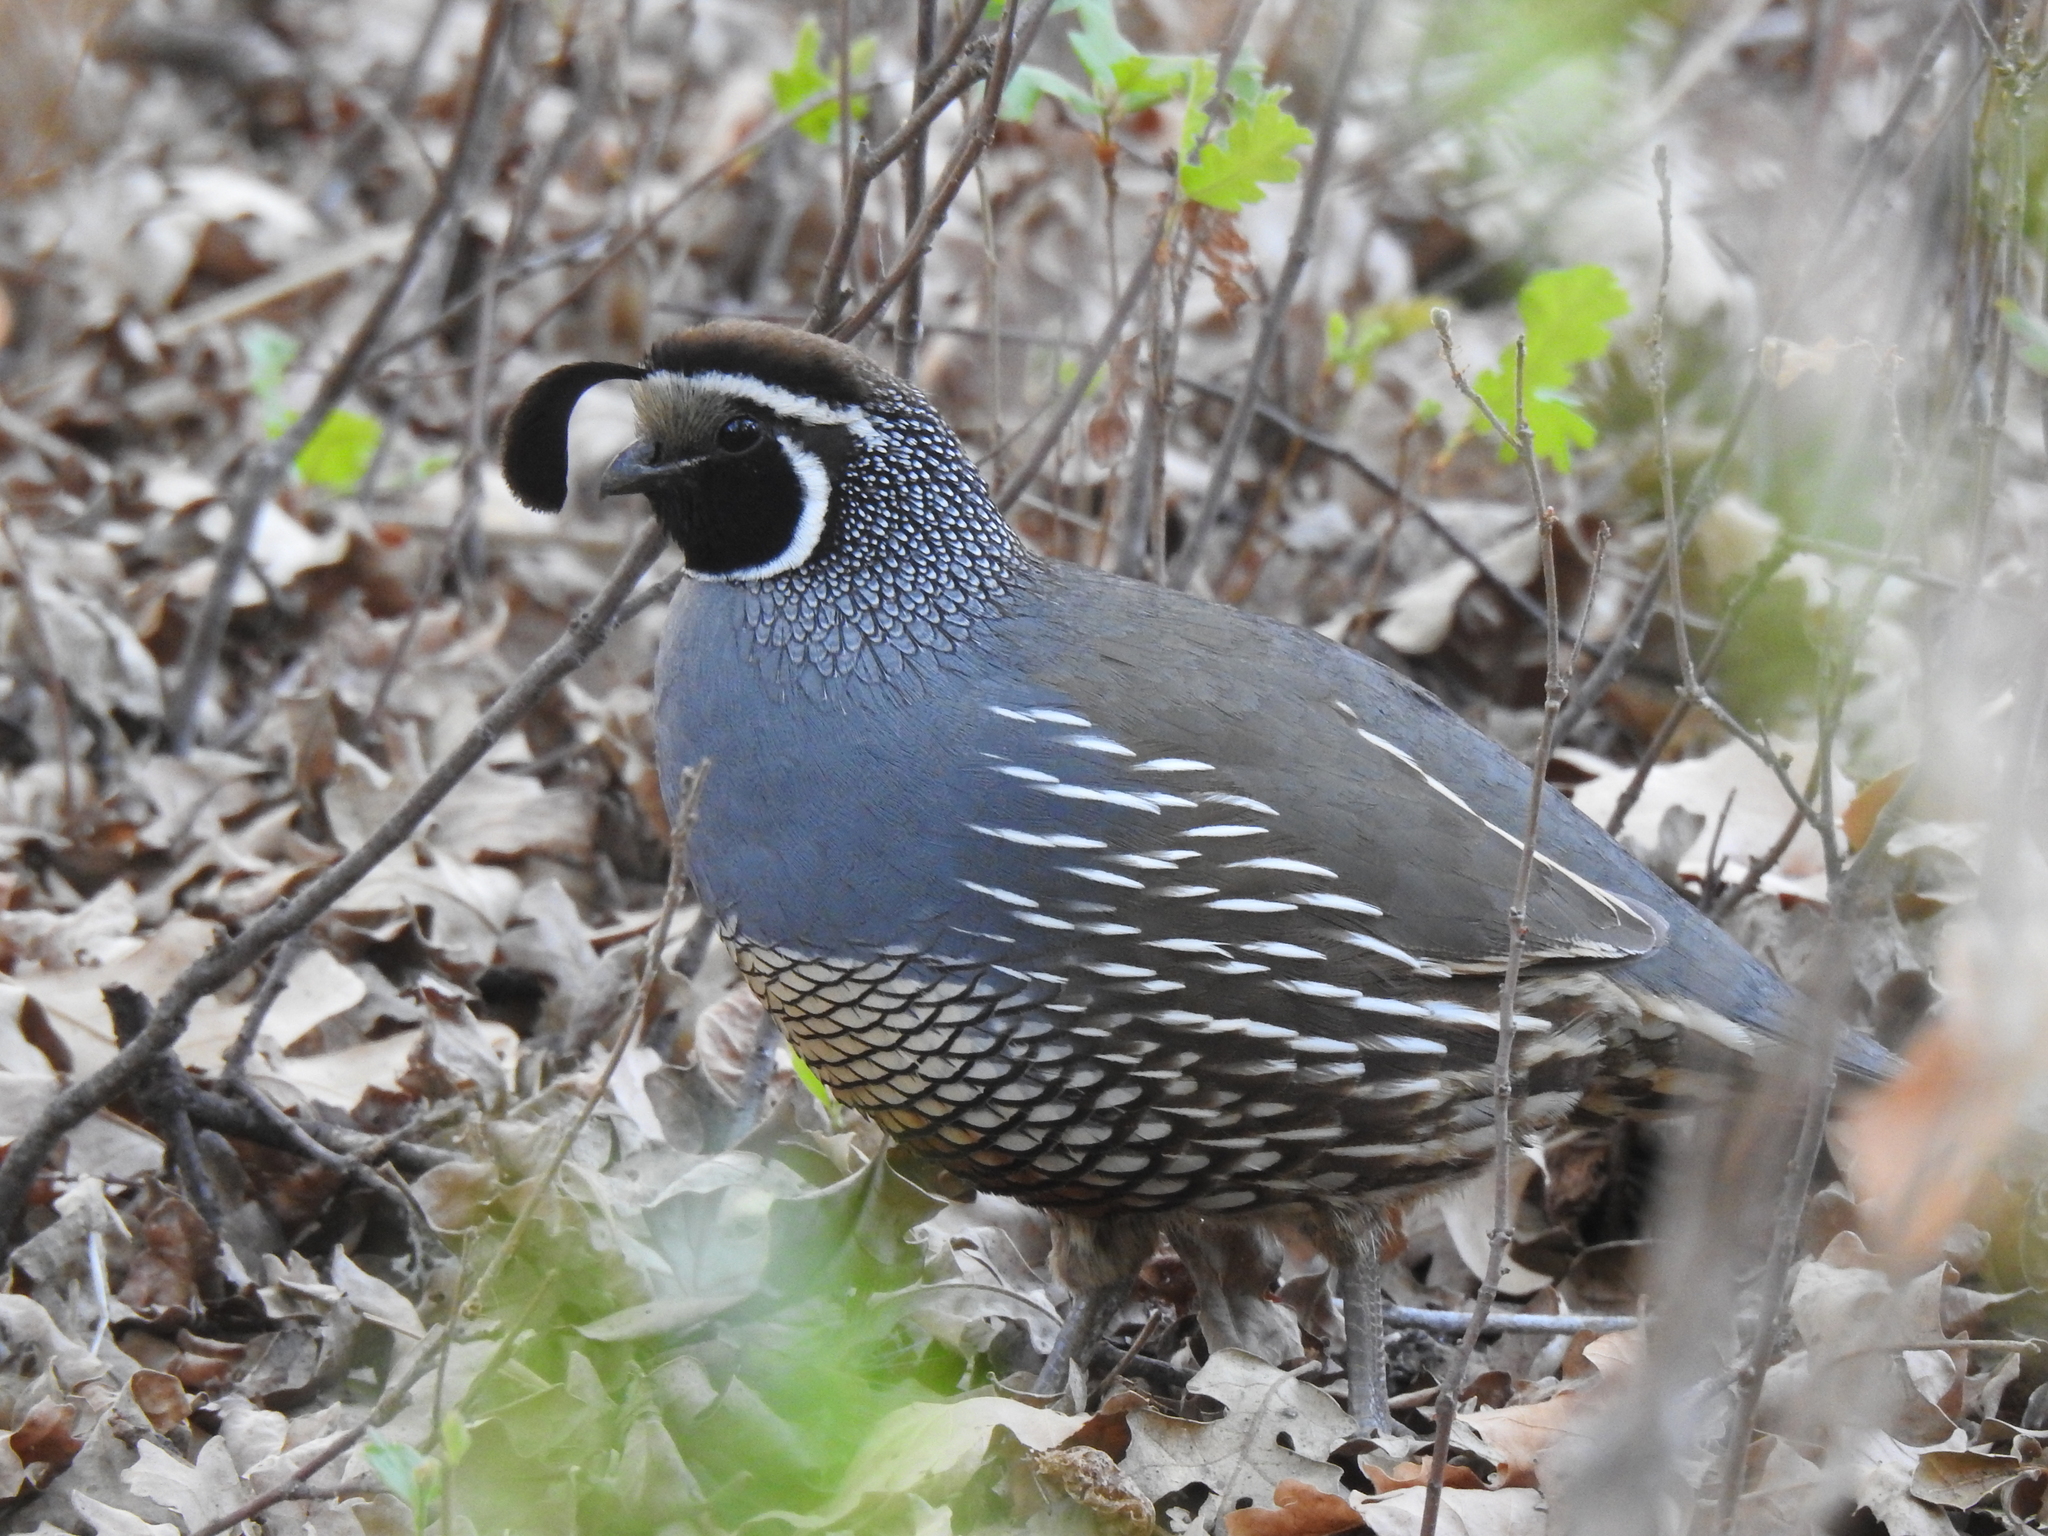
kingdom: Animalia
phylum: Chordata
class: Aves
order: Galliformes
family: Odontophoridae
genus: Callipepla
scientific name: Callipepla californica
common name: California quail
